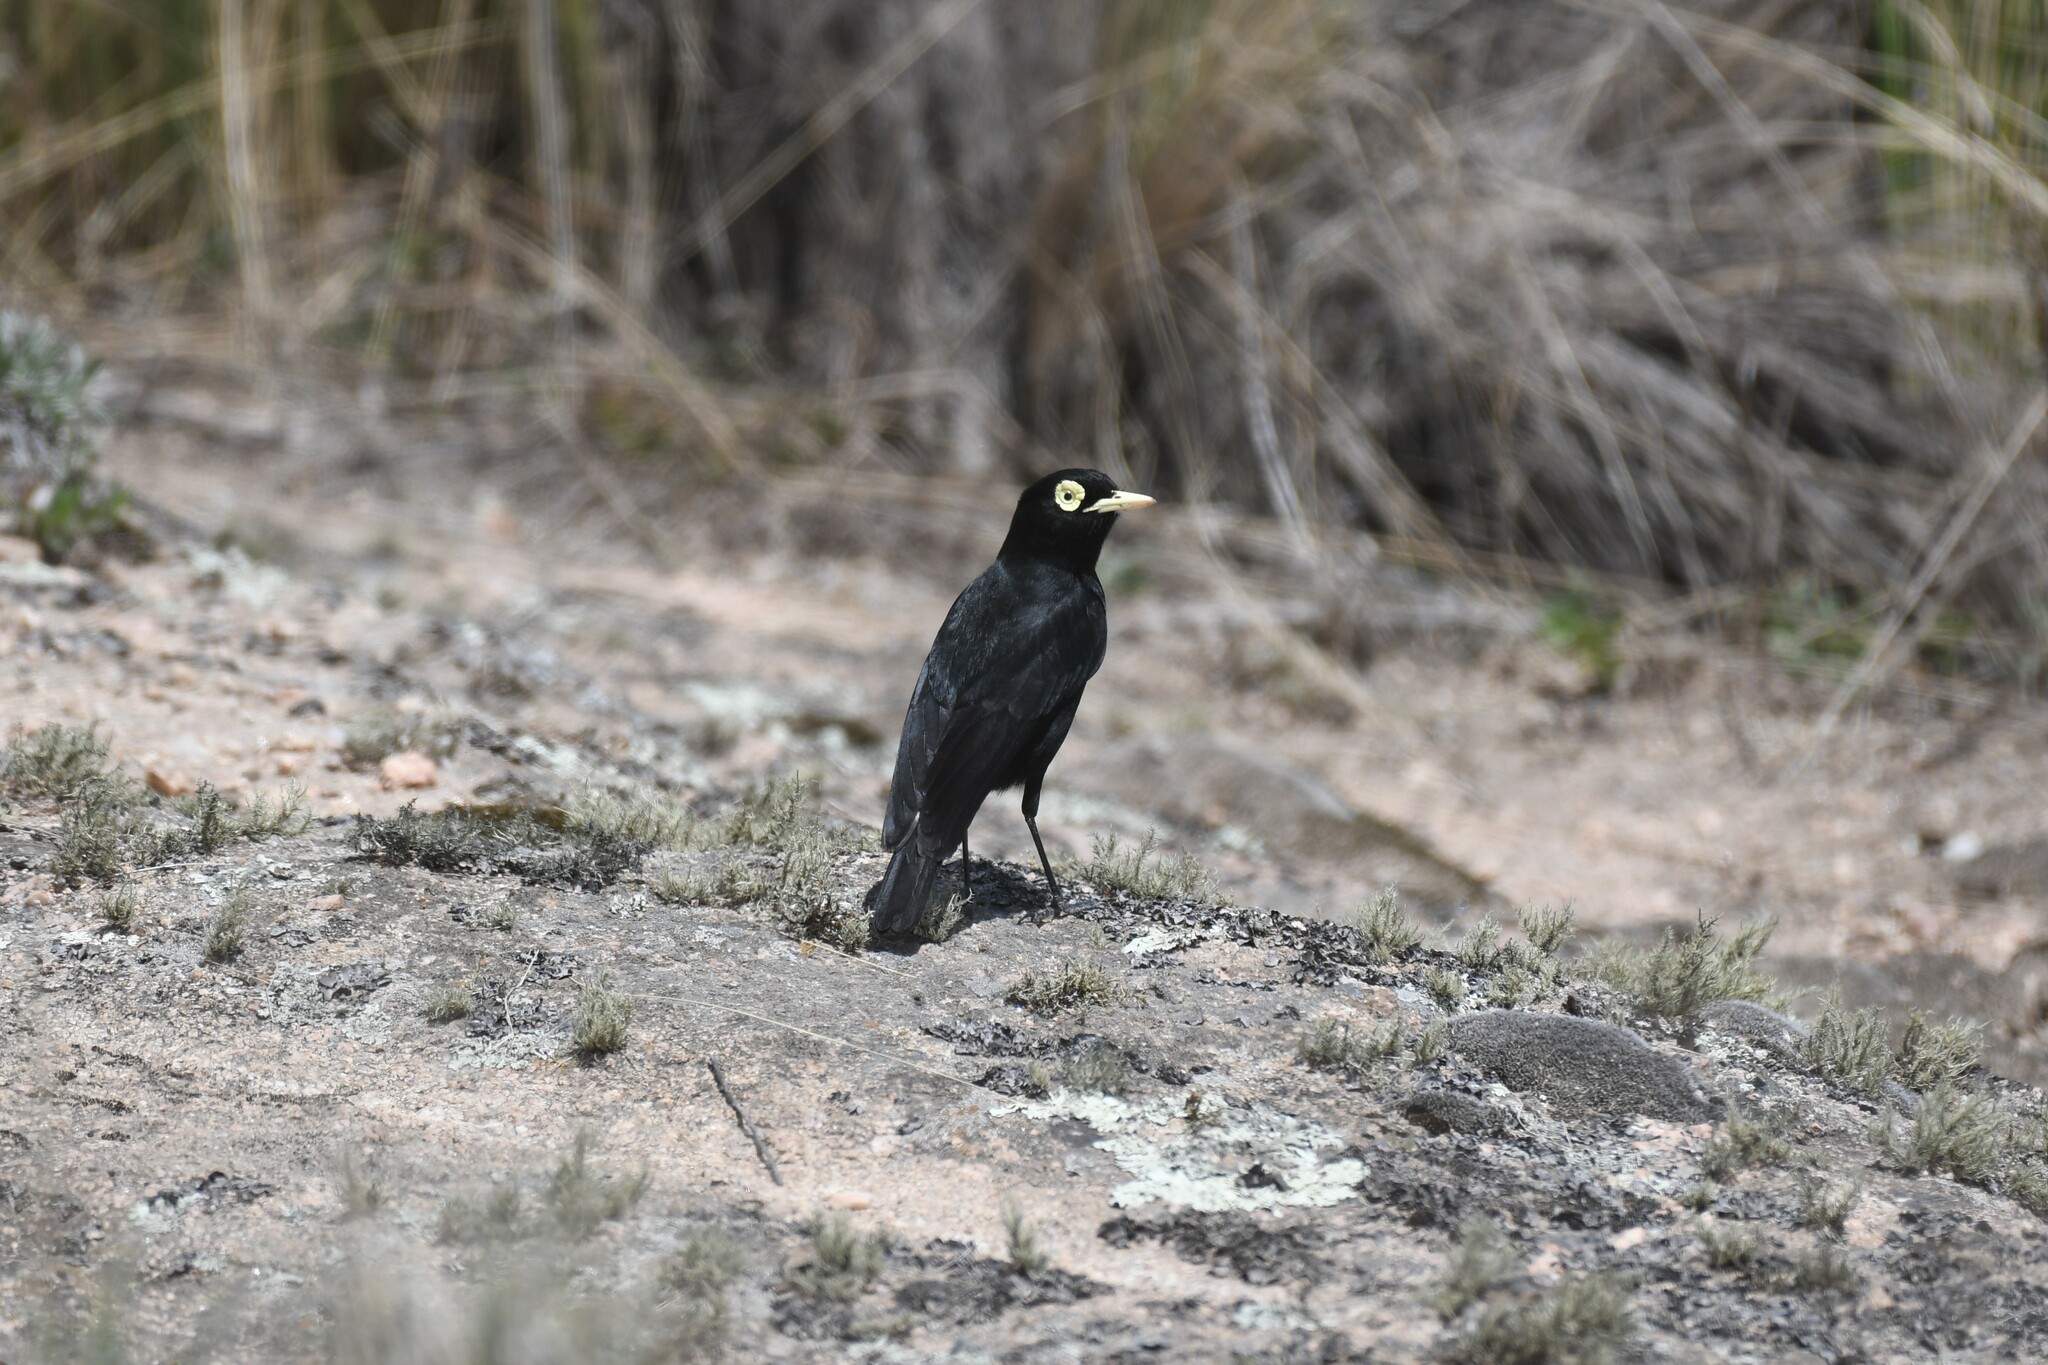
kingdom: Animalia
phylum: Chordata
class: Aves
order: Passeriformes
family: Tyrannidae
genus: Hymenops
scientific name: Hymenops perspicillatus
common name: Spectacled tyrant
